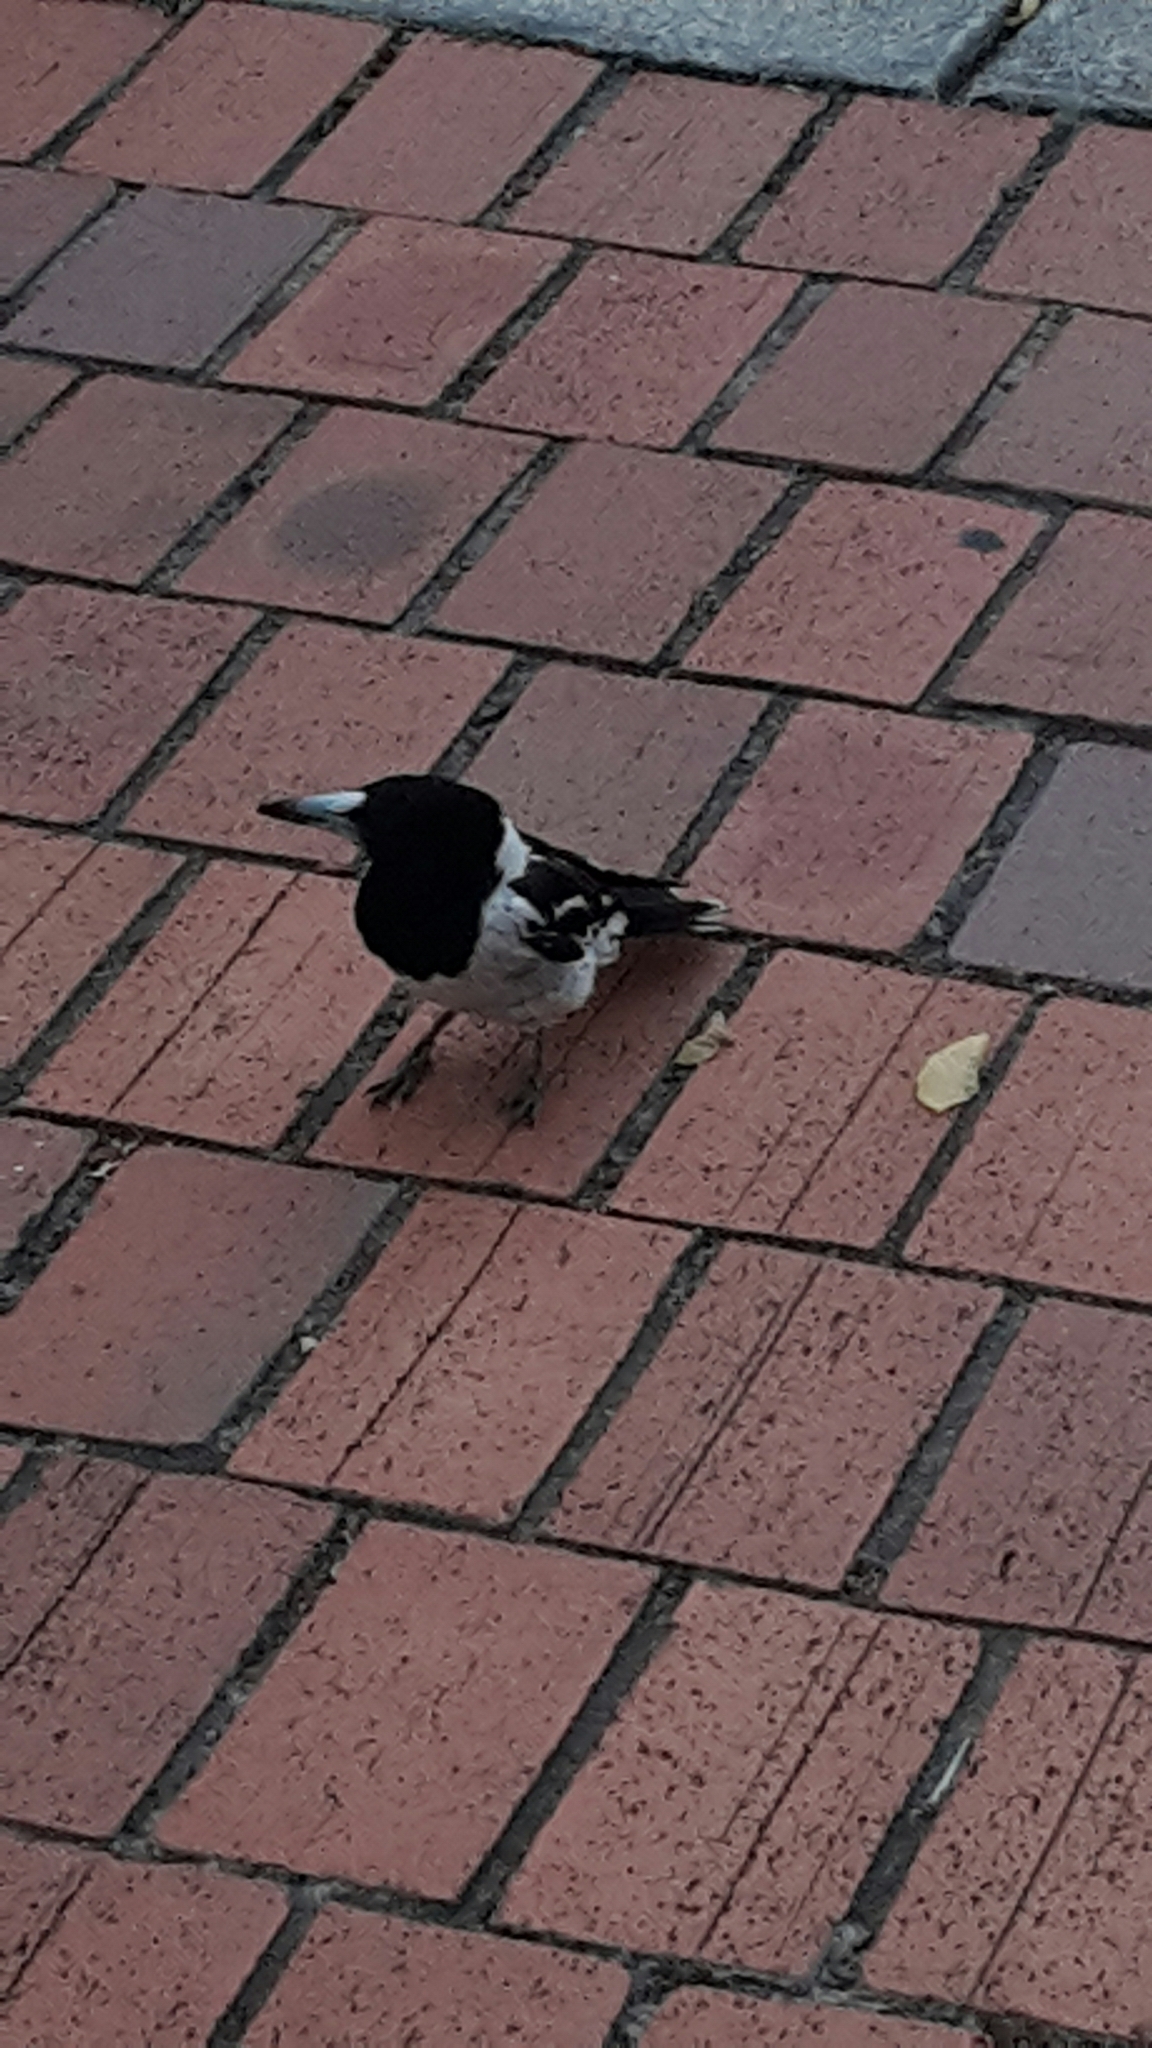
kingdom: Animalia
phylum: Chordata
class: Aves
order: Passeriformes
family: Cracticidae
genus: Cracticus
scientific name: Cracticus nigrogularis
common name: Pied butcherbird
